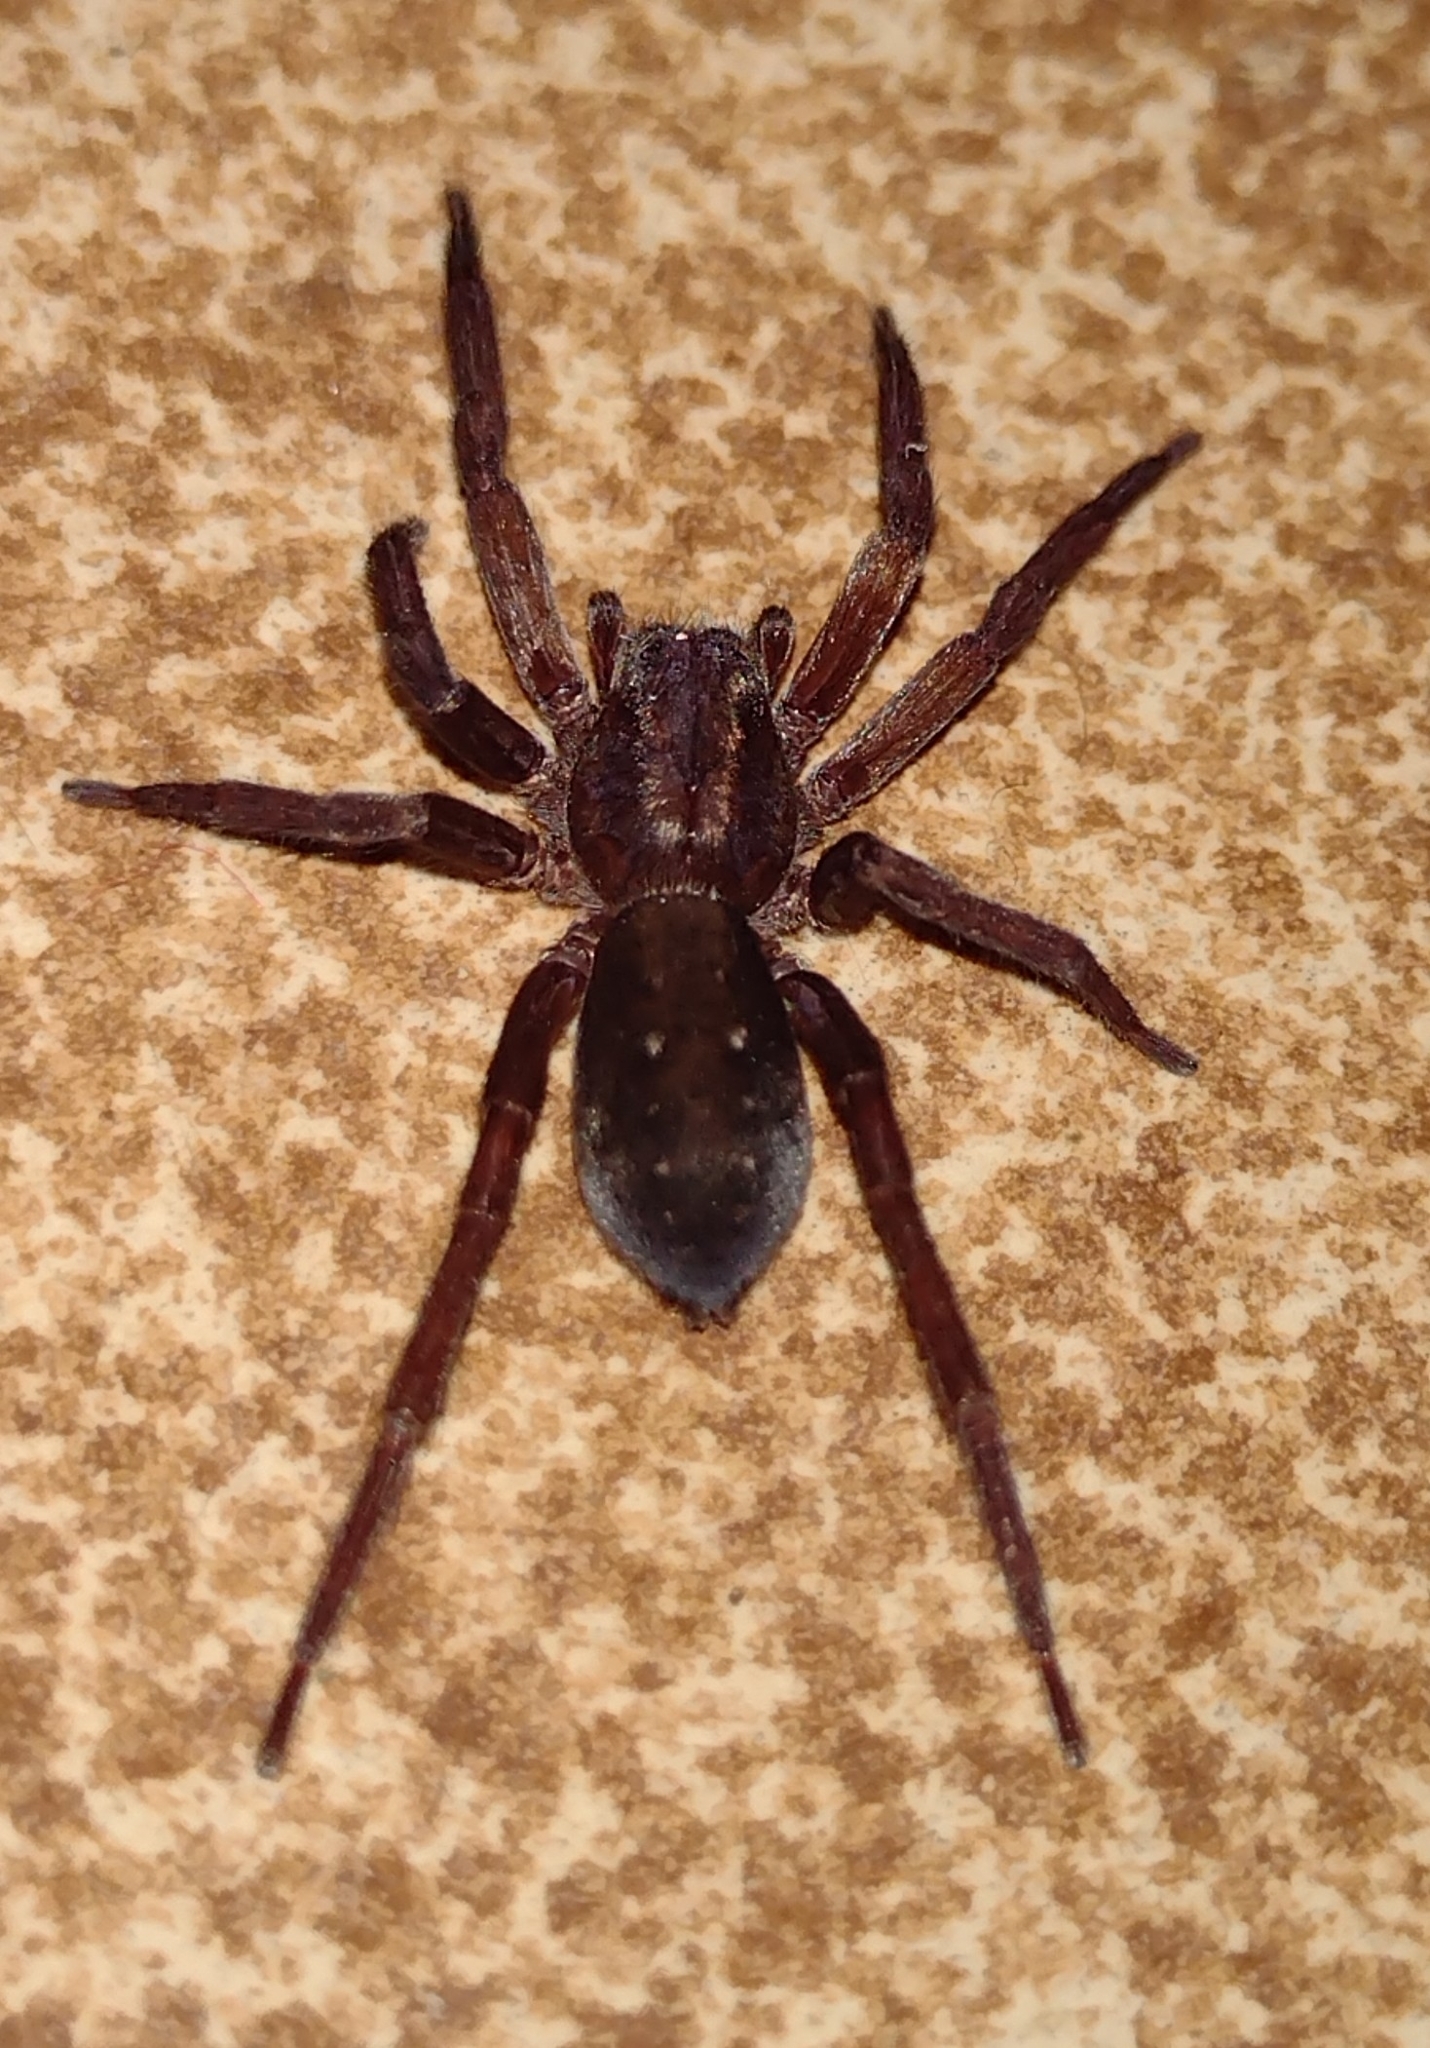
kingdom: Animalia
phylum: Arthropoda
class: Arachnida
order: Araneae
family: Ctenidae
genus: Asthenoctenus
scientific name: Asthenoctenus borellii
